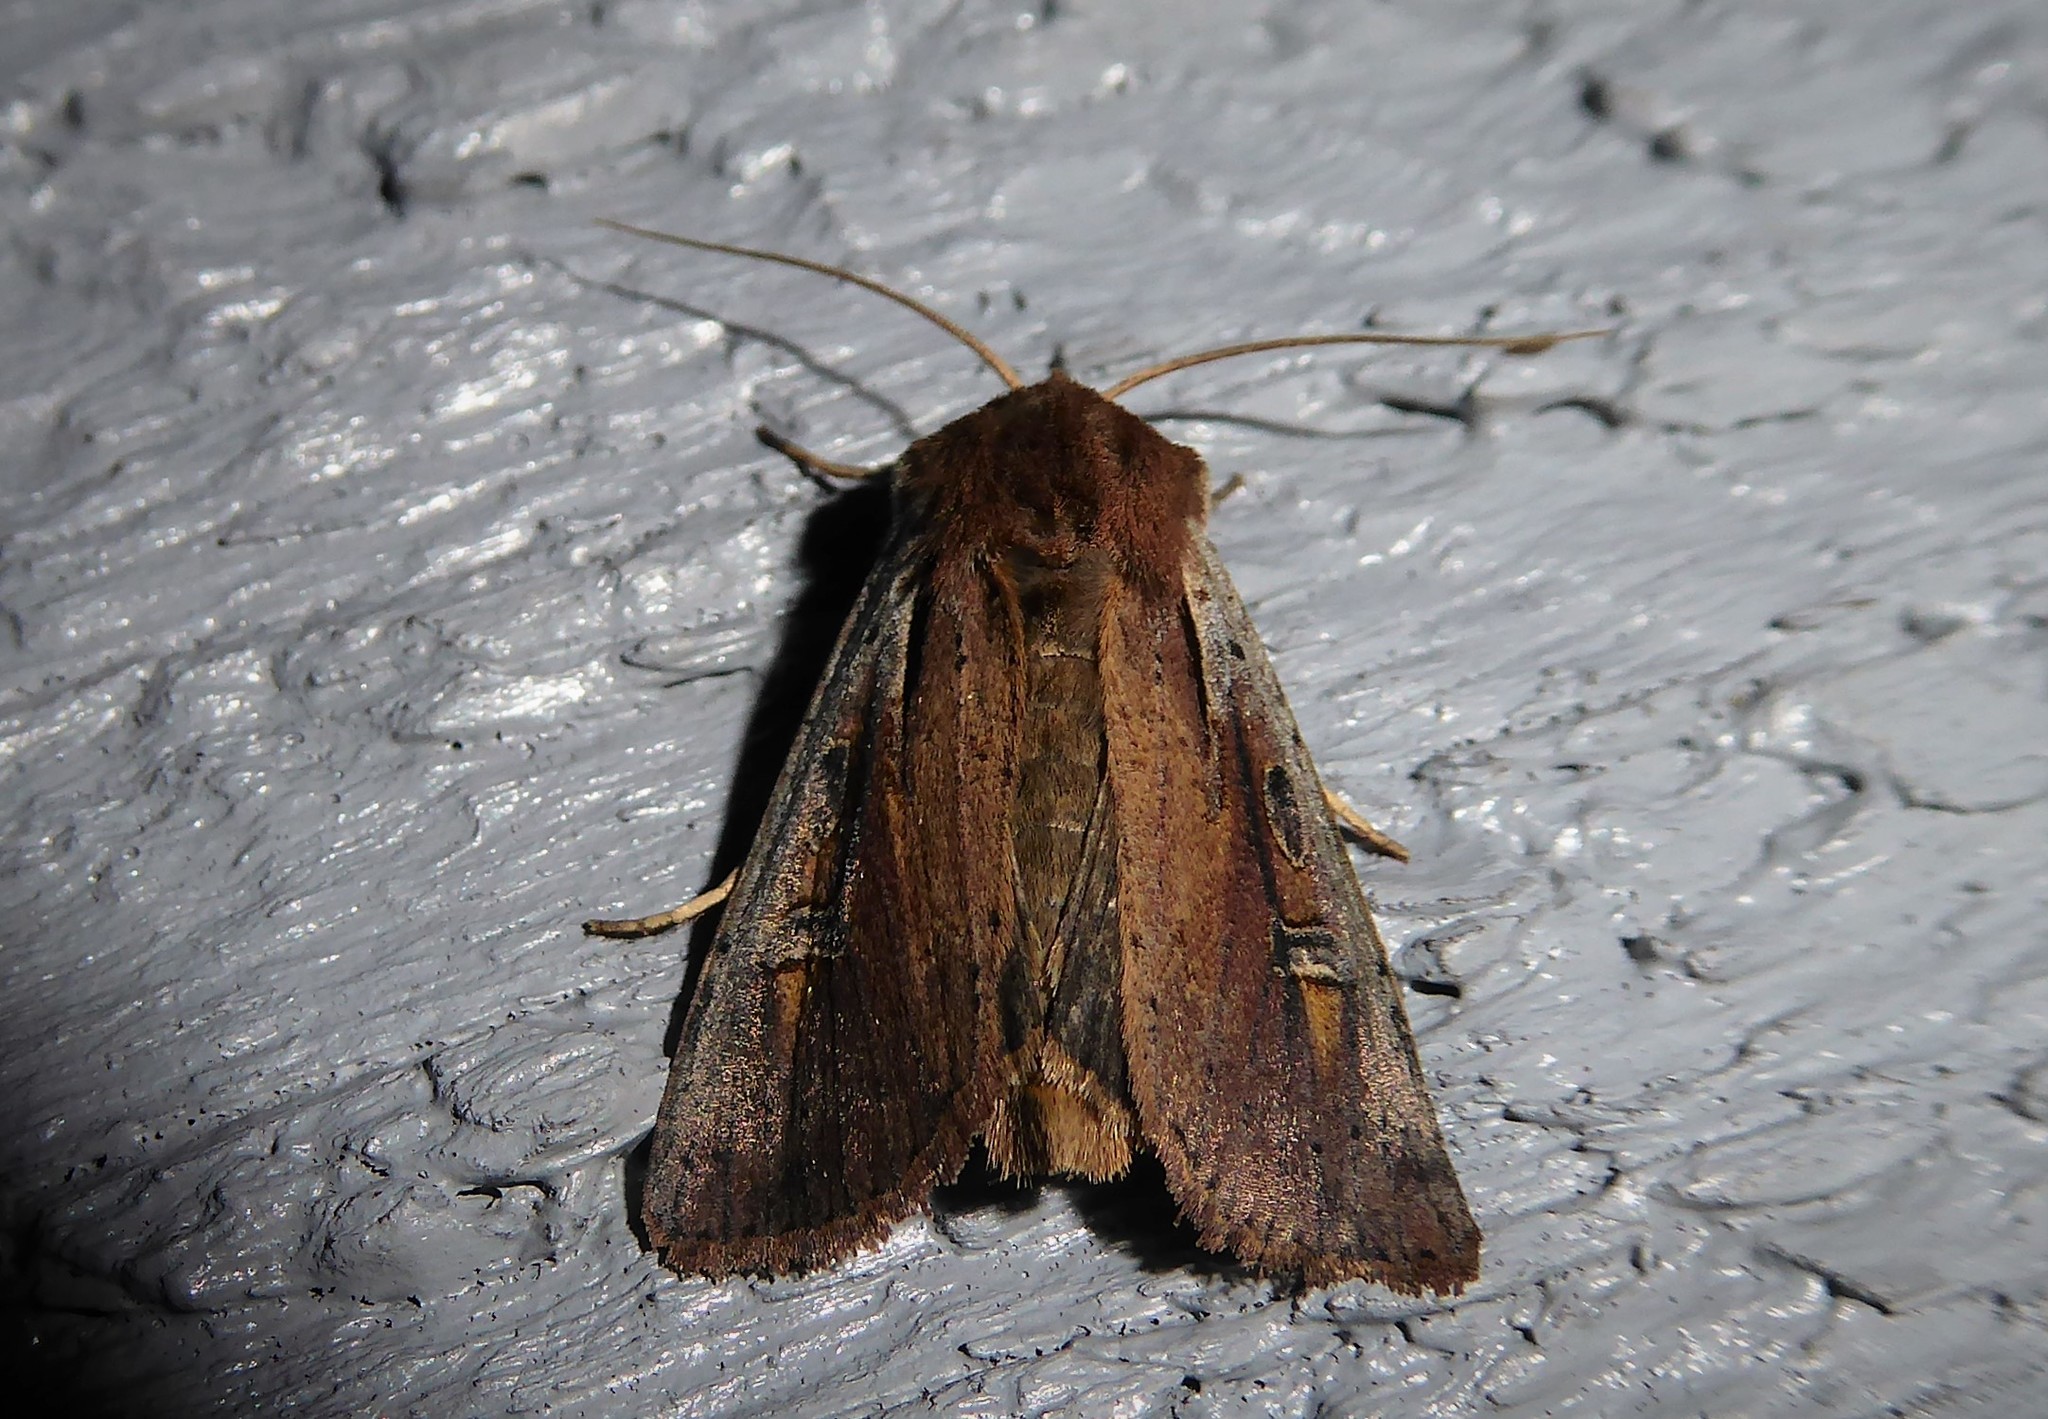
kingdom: Animalia
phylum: Arthropoda
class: Insecta
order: Lepidoptera
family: Noctuidae
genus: Ichneutica
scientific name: Ichneutica atristriga
